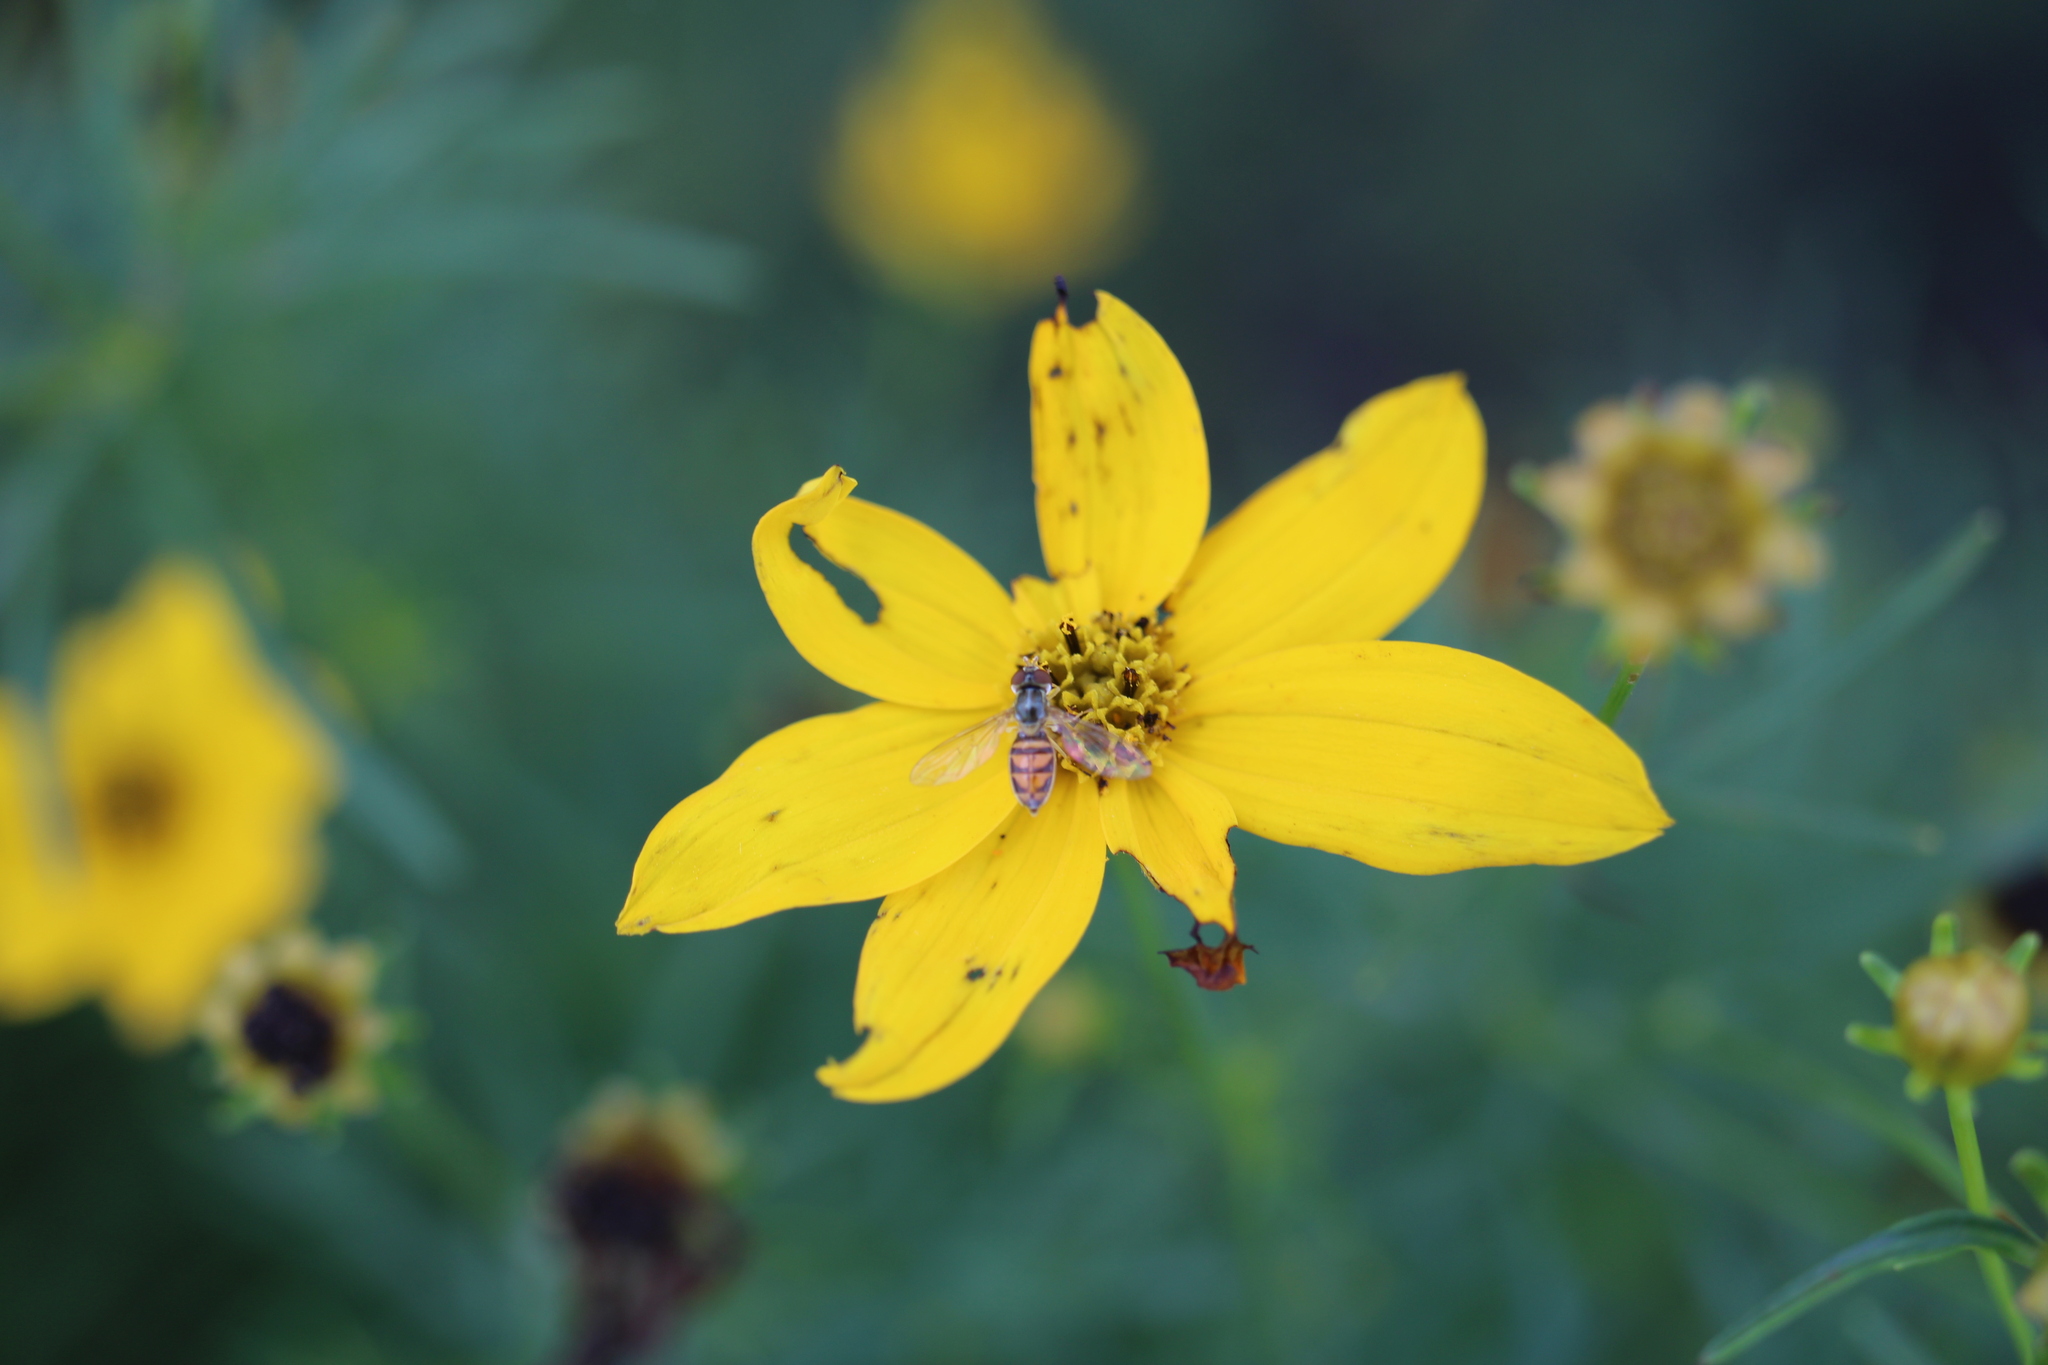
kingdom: Animalia
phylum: Arthropoda
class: Insecta
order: Diptera
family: Syrphidae
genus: Toxomerus
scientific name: Toxomerus marginatus
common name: Syrphid fly
